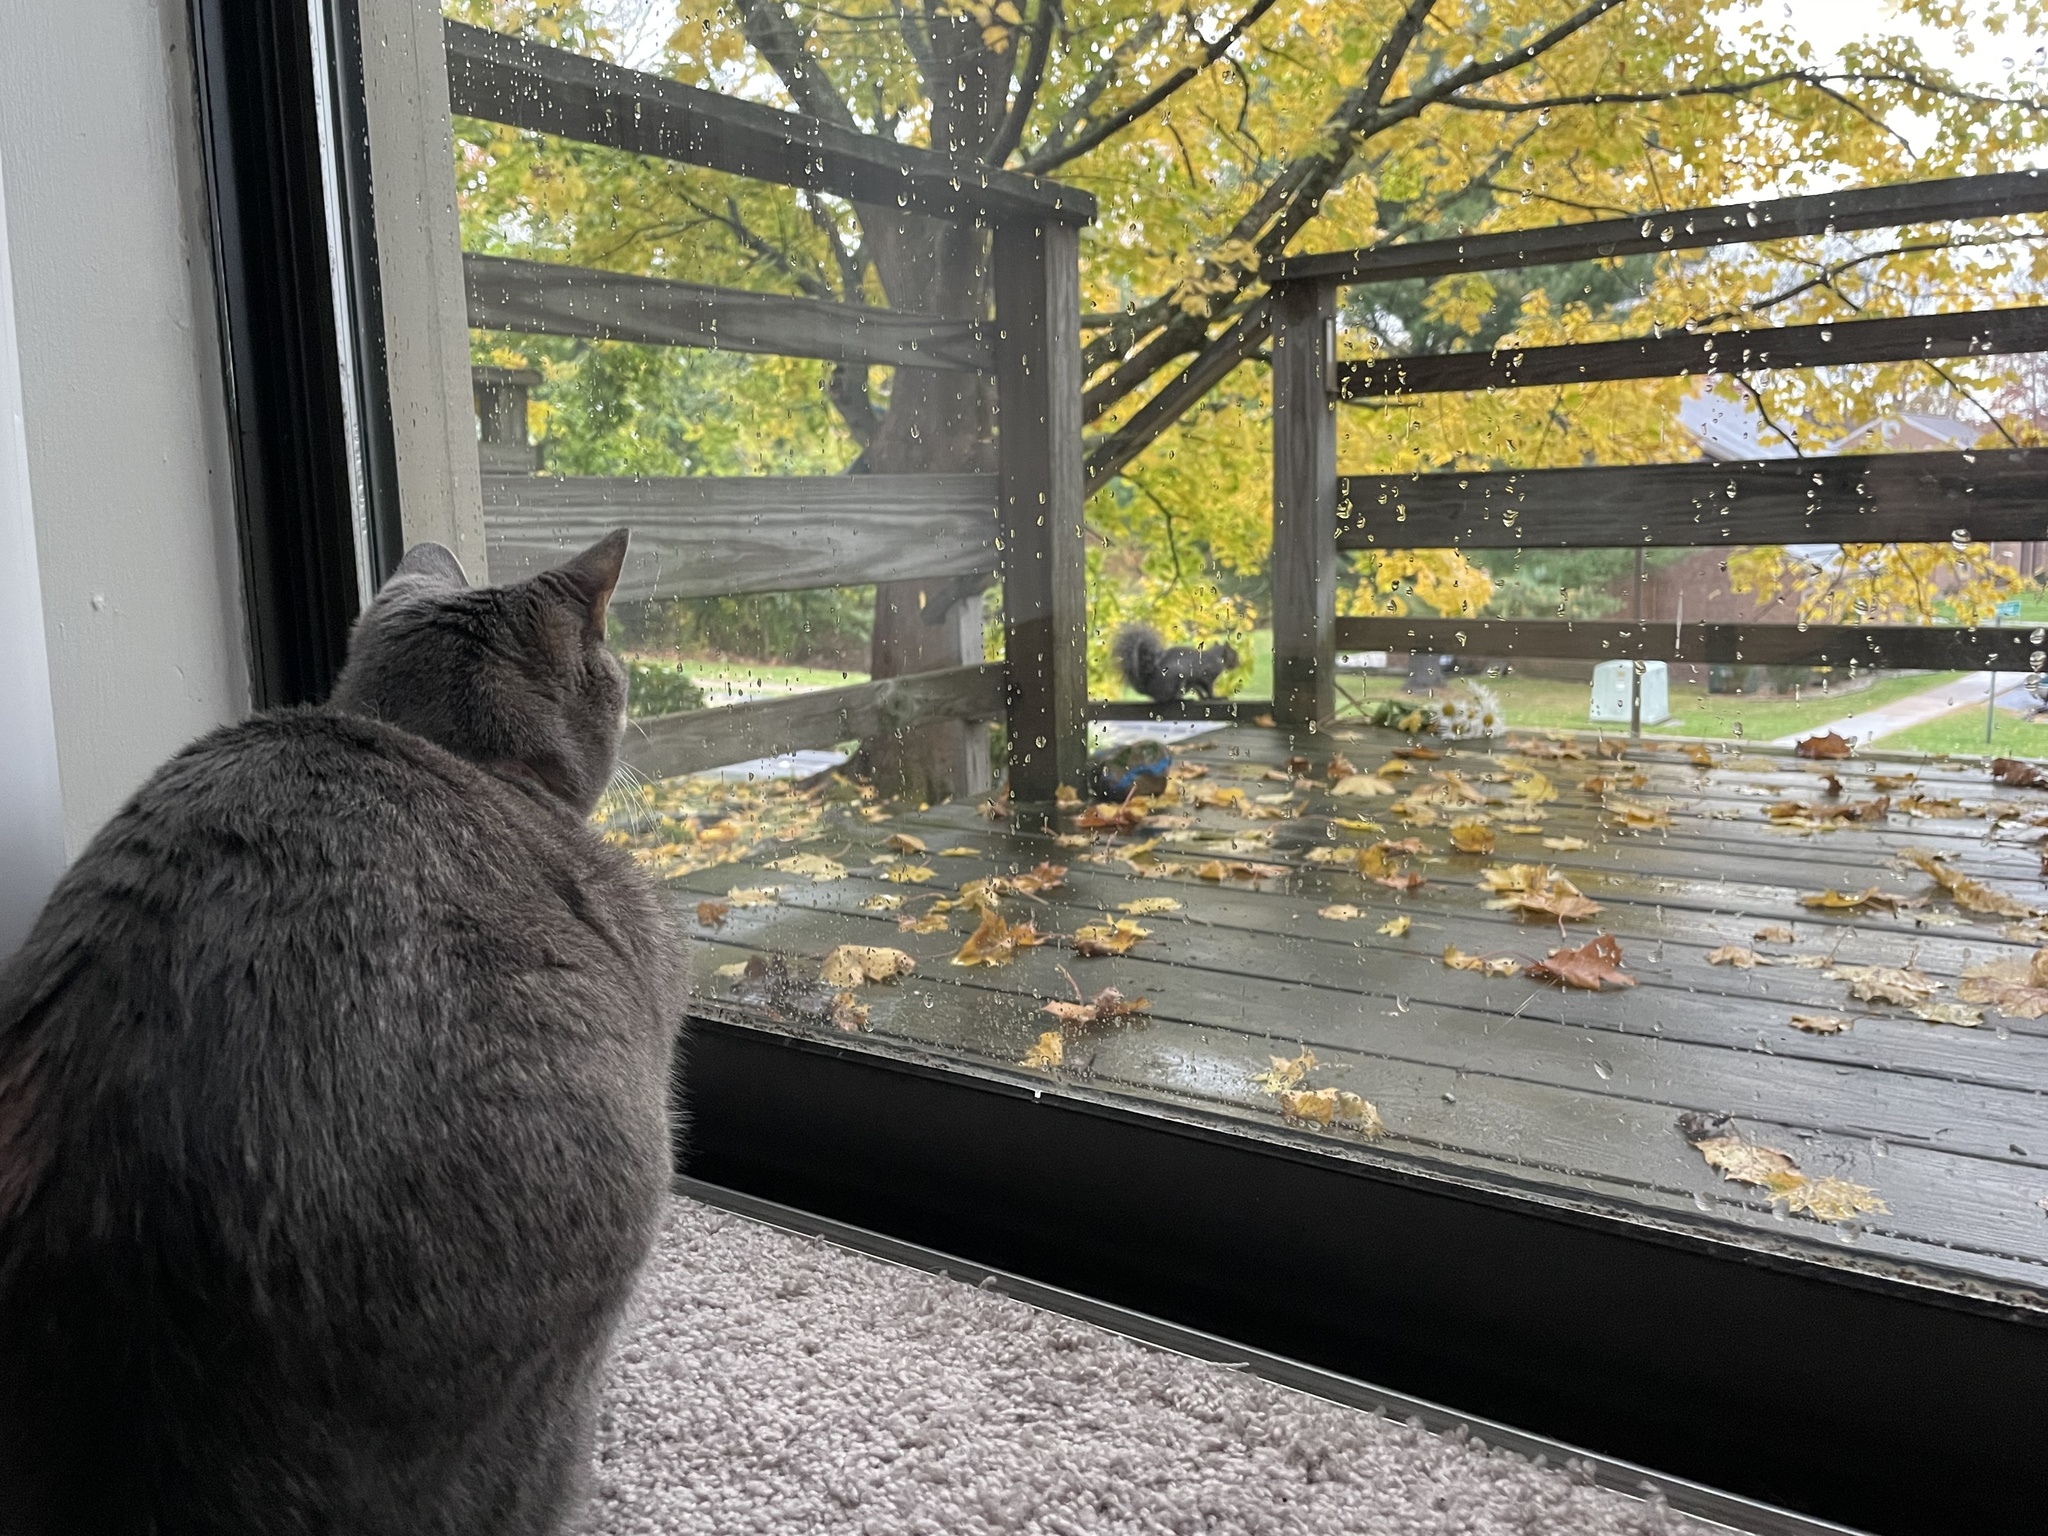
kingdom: Animalia
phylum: Chordata
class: Mammalia
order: Rodentia
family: Sciuridae
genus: Sciurus
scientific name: Sciurus carolinensis
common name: Eastern gray squirrel
